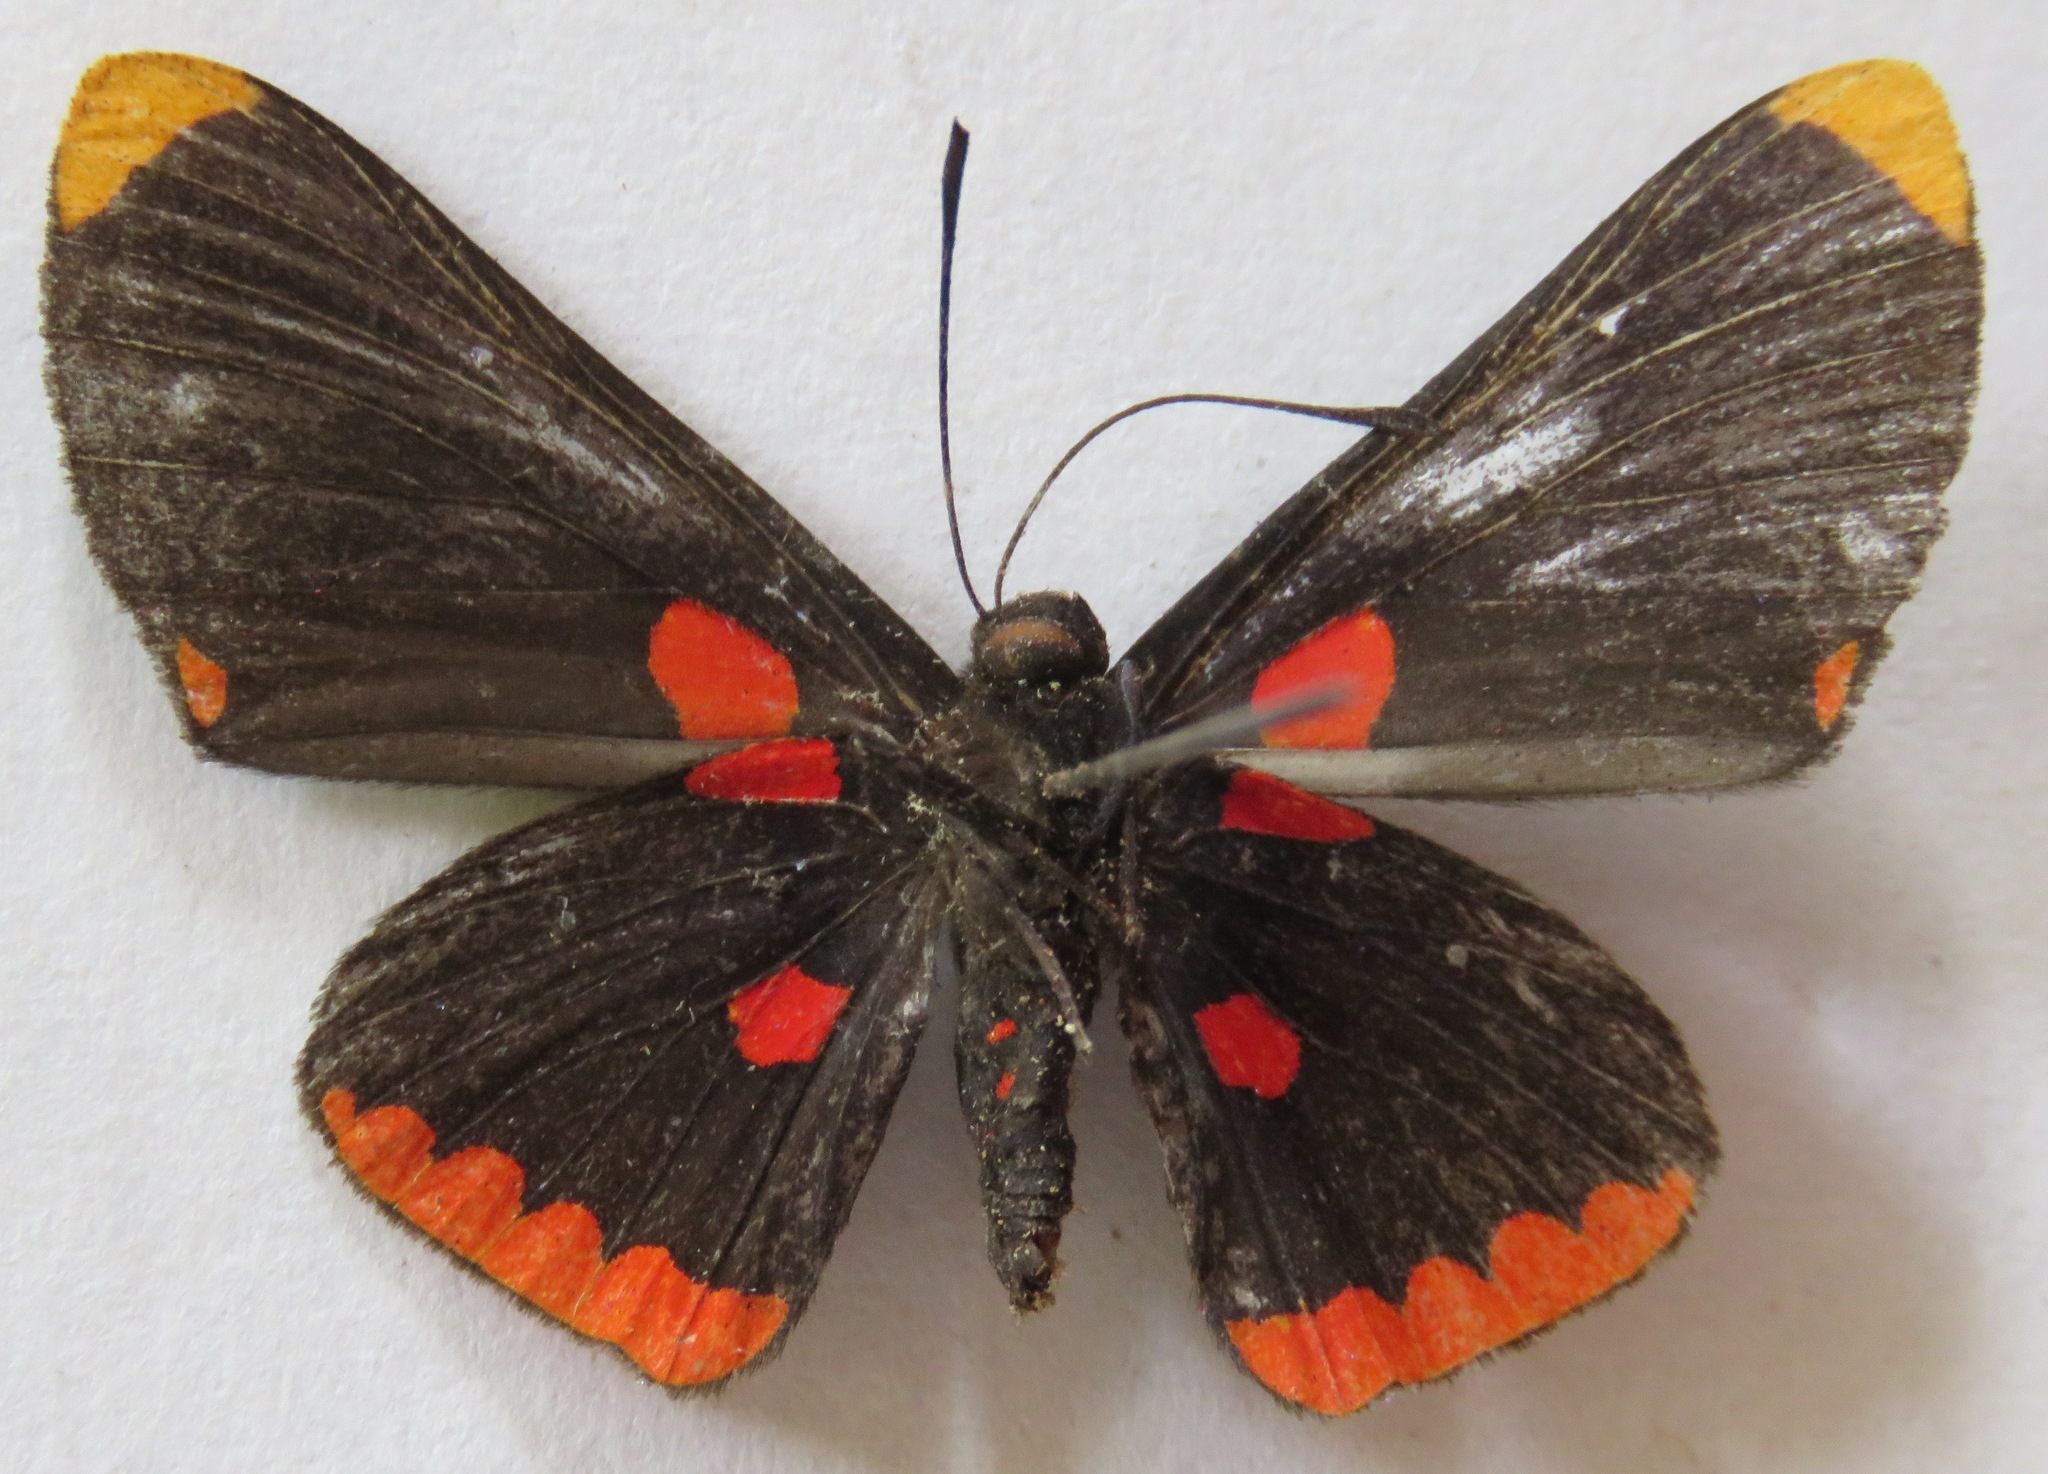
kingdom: Animalia
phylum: Arthropoda
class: Insecta
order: Lepidoptera
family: Lycaenidae
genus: Melanis
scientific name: Melanis pixe
